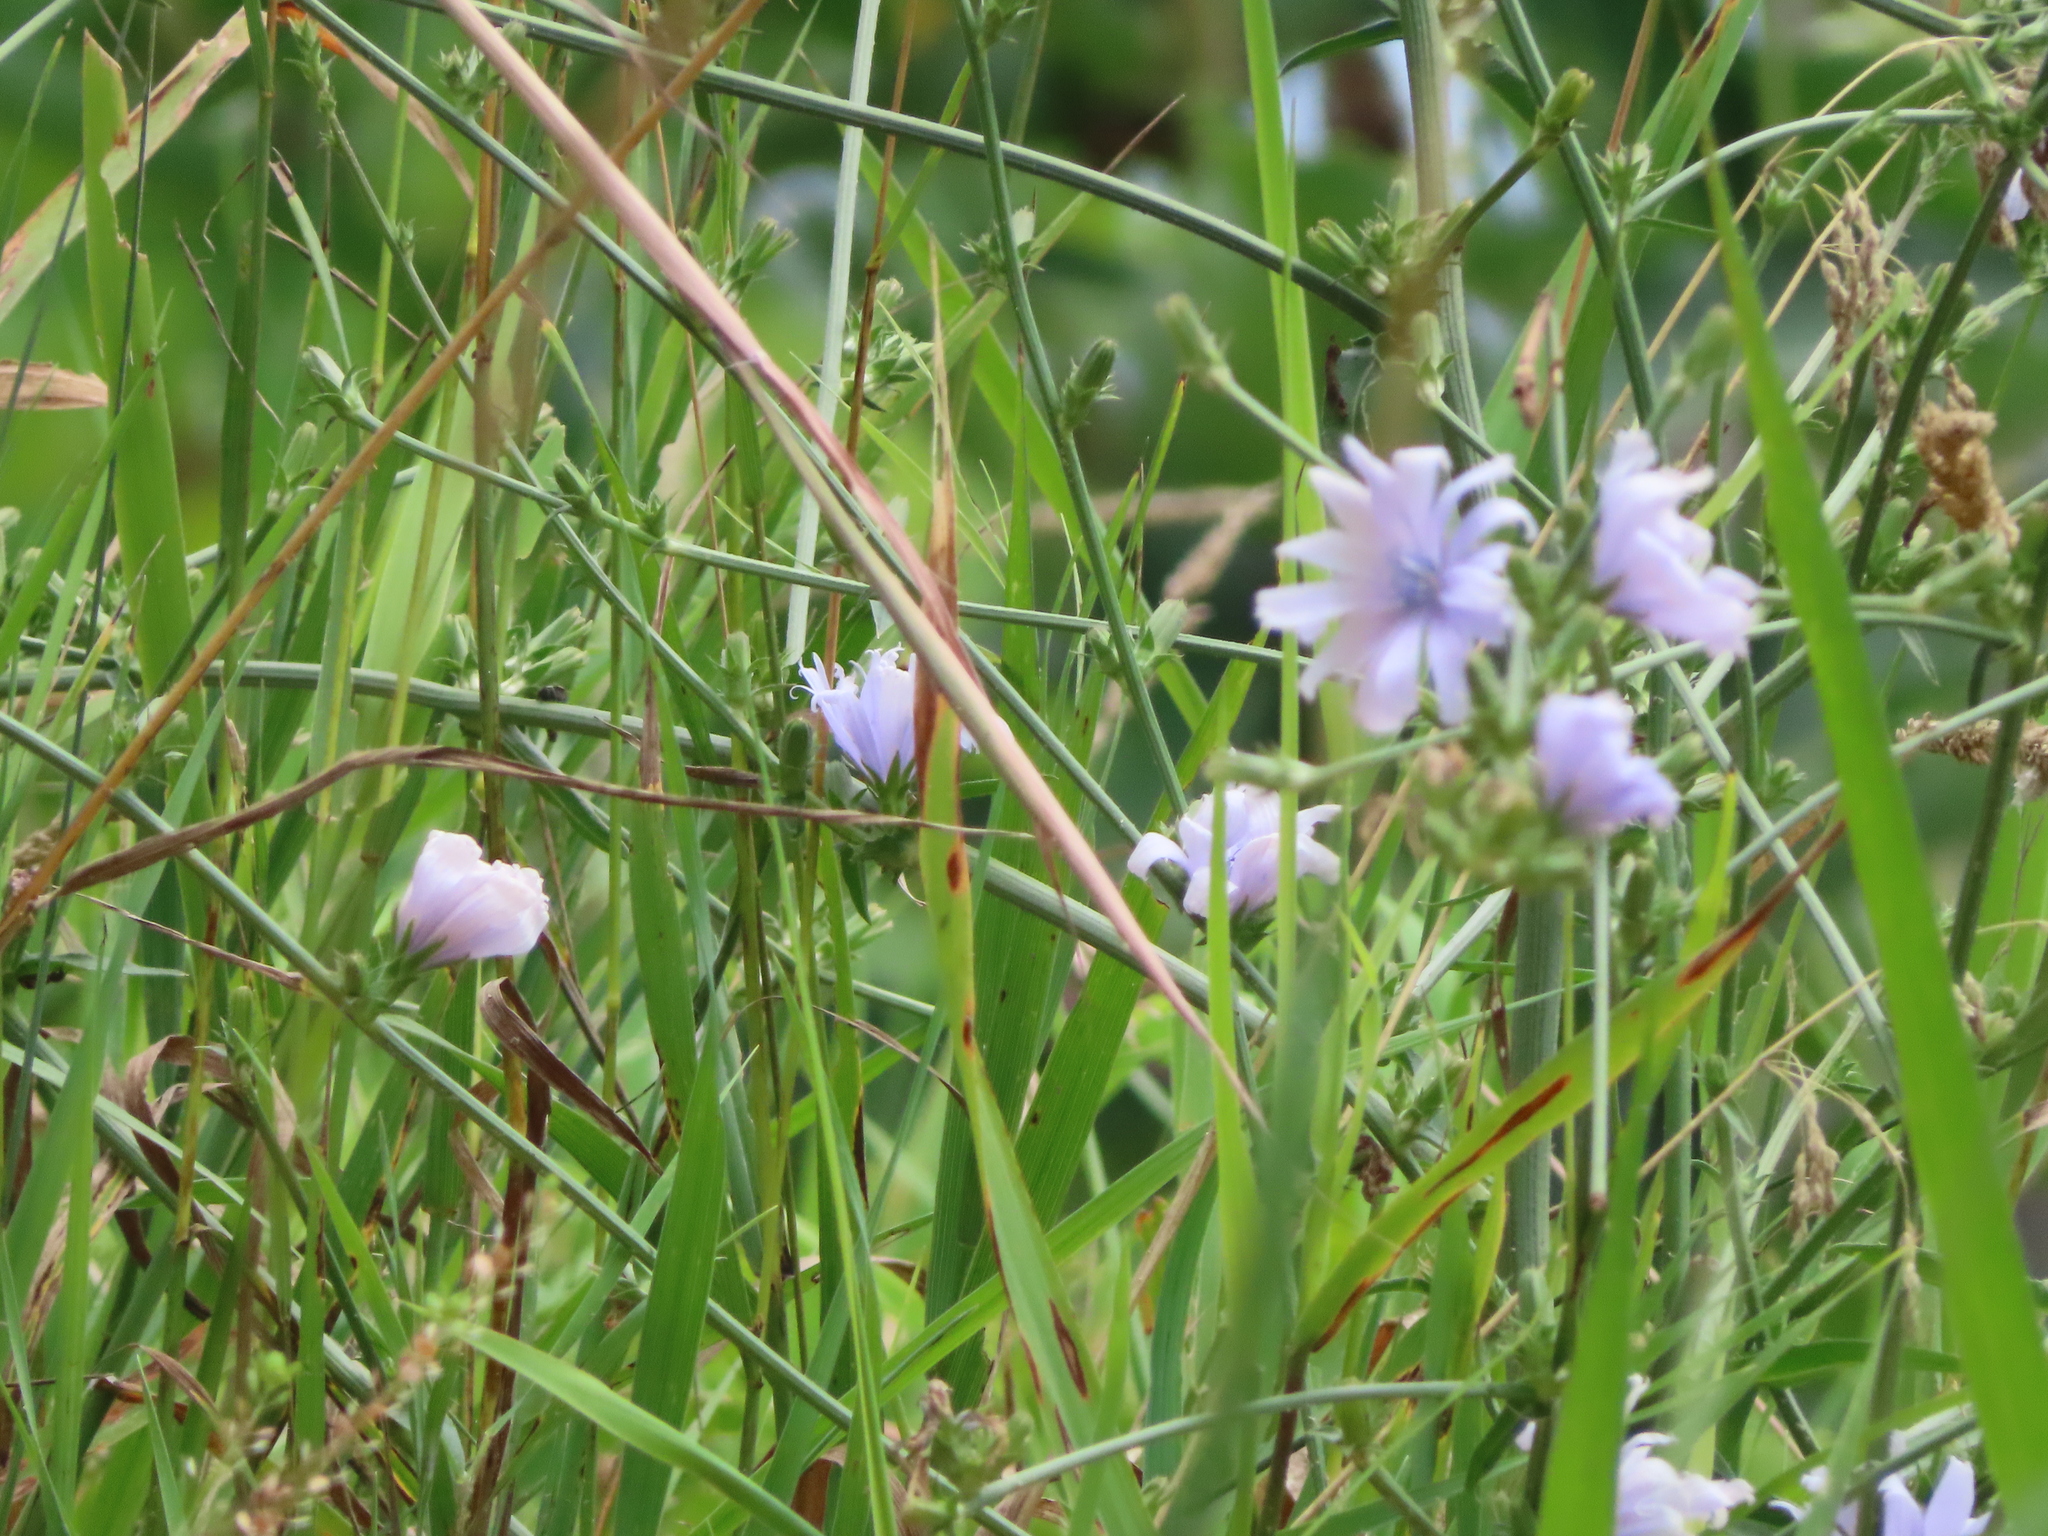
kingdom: Plantae
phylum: Tracheophyta
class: Magnoliopsida
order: Asterales
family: Asteraceae
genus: Cichorium
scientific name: Cichorium intybus
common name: Chicory
